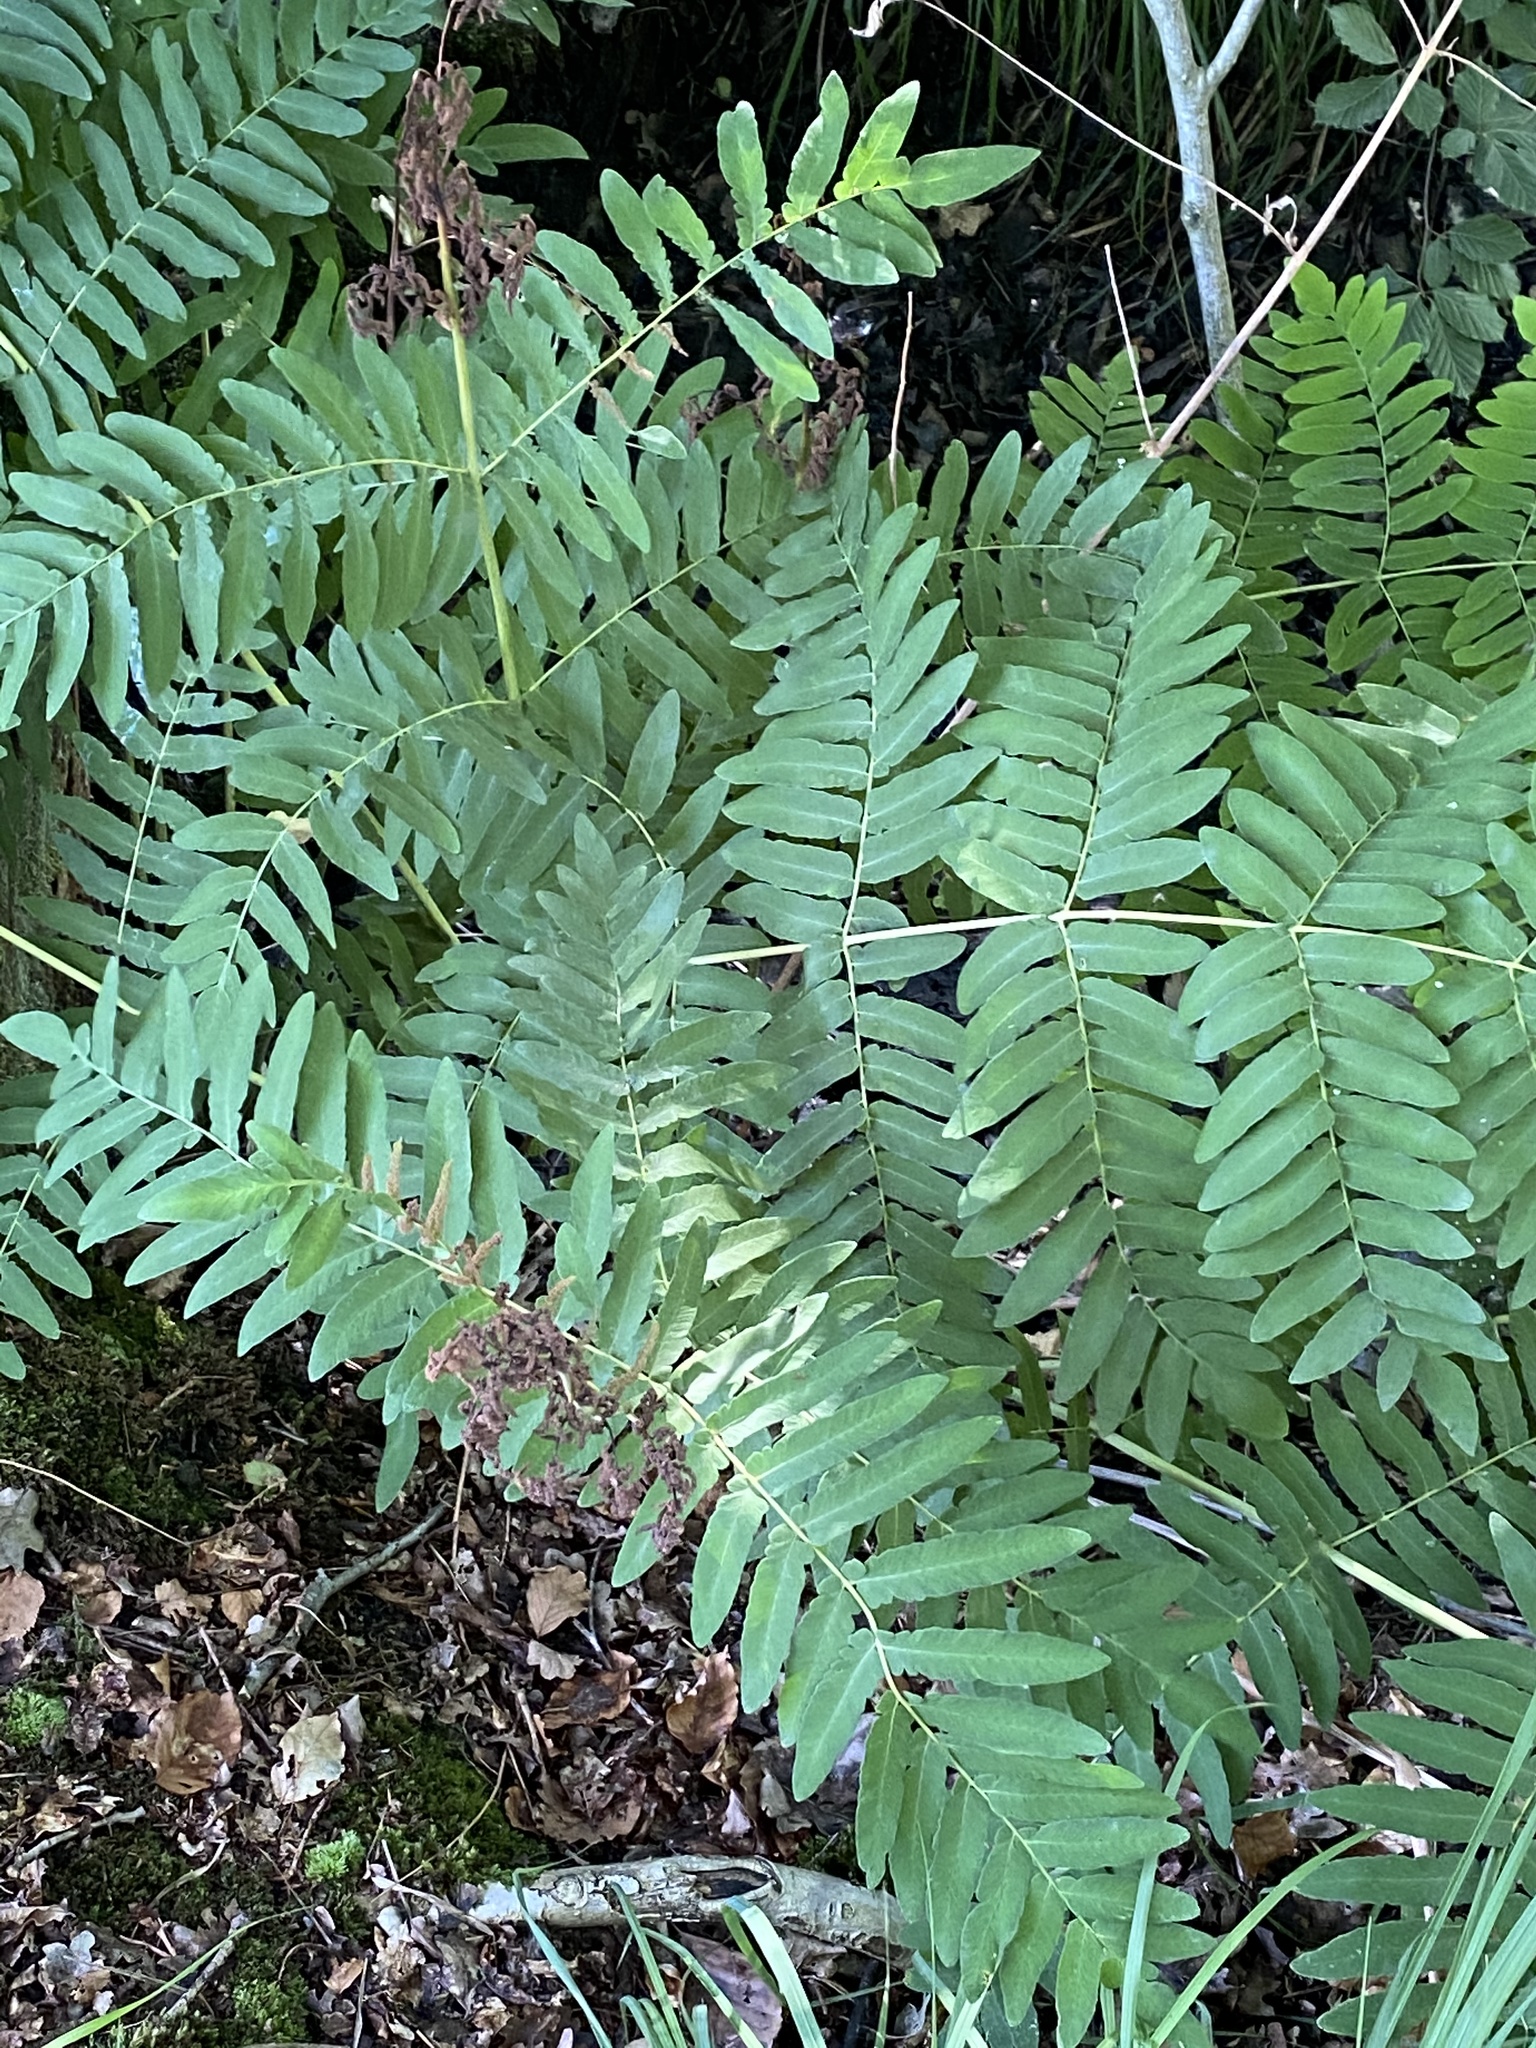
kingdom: Plantae
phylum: Tracheophyta
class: Polypodiopsida
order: Osmundales
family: Osmundaceae
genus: Osmunda
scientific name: Osmunda regalis
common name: Royal fern
